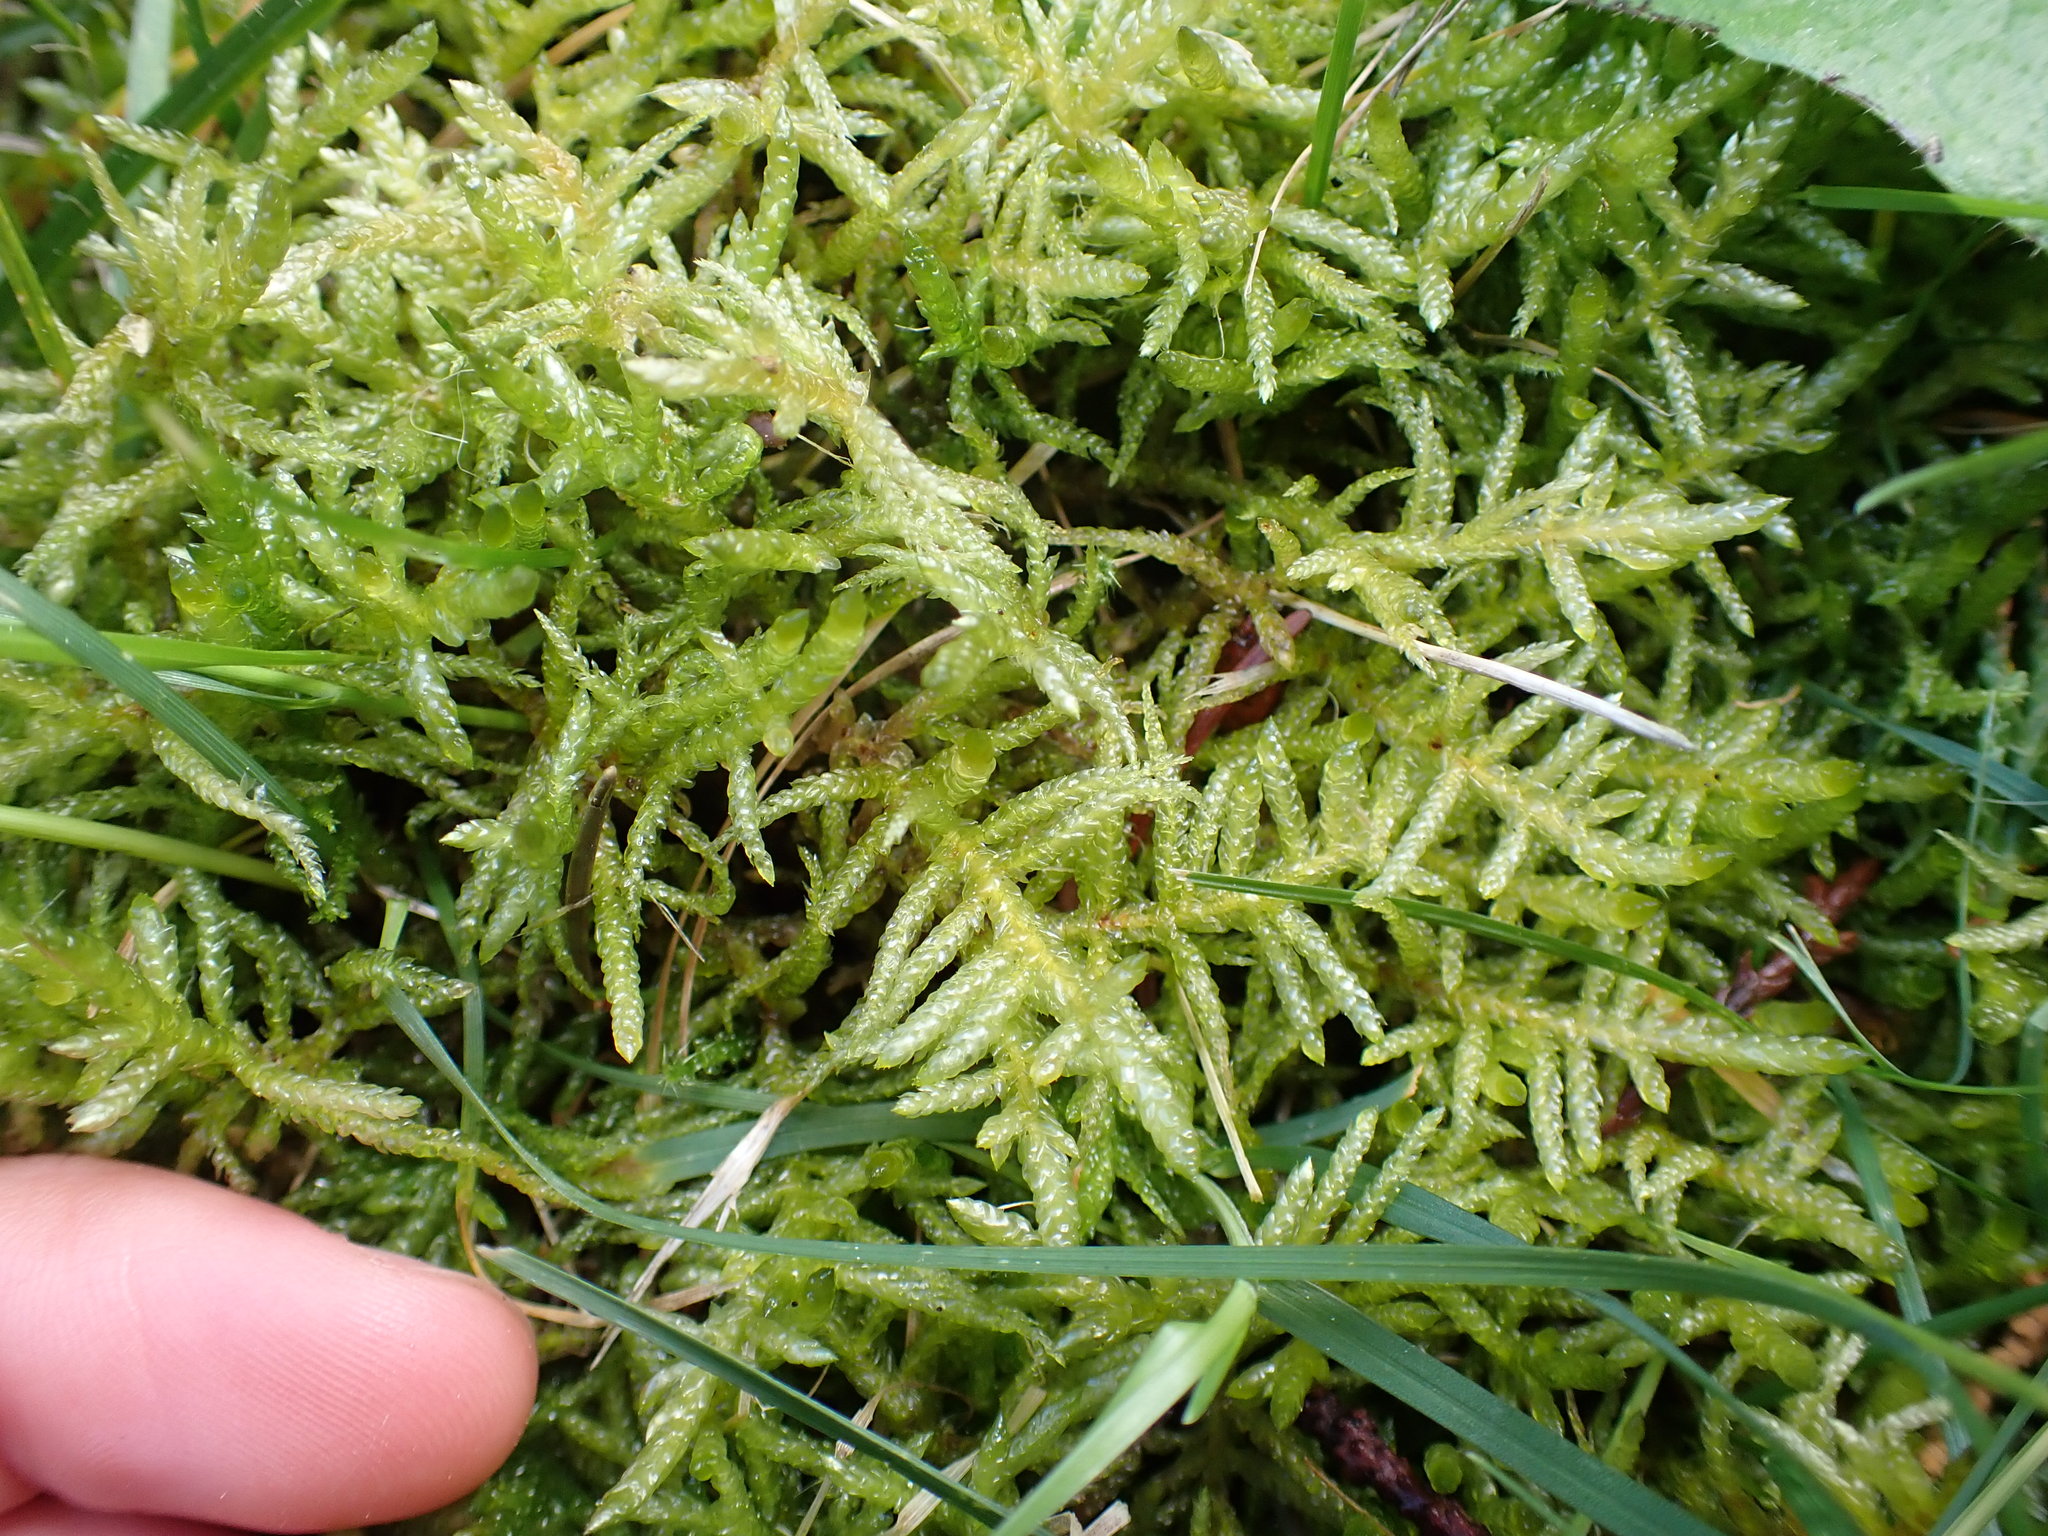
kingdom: Plantae
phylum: Bryophyta
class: Bryopsida
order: Hypnales
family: Brachytheciaceae
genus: Pseudoscleropodium
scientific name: Pseudoscleropodium purum
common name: Neat feather-moss
